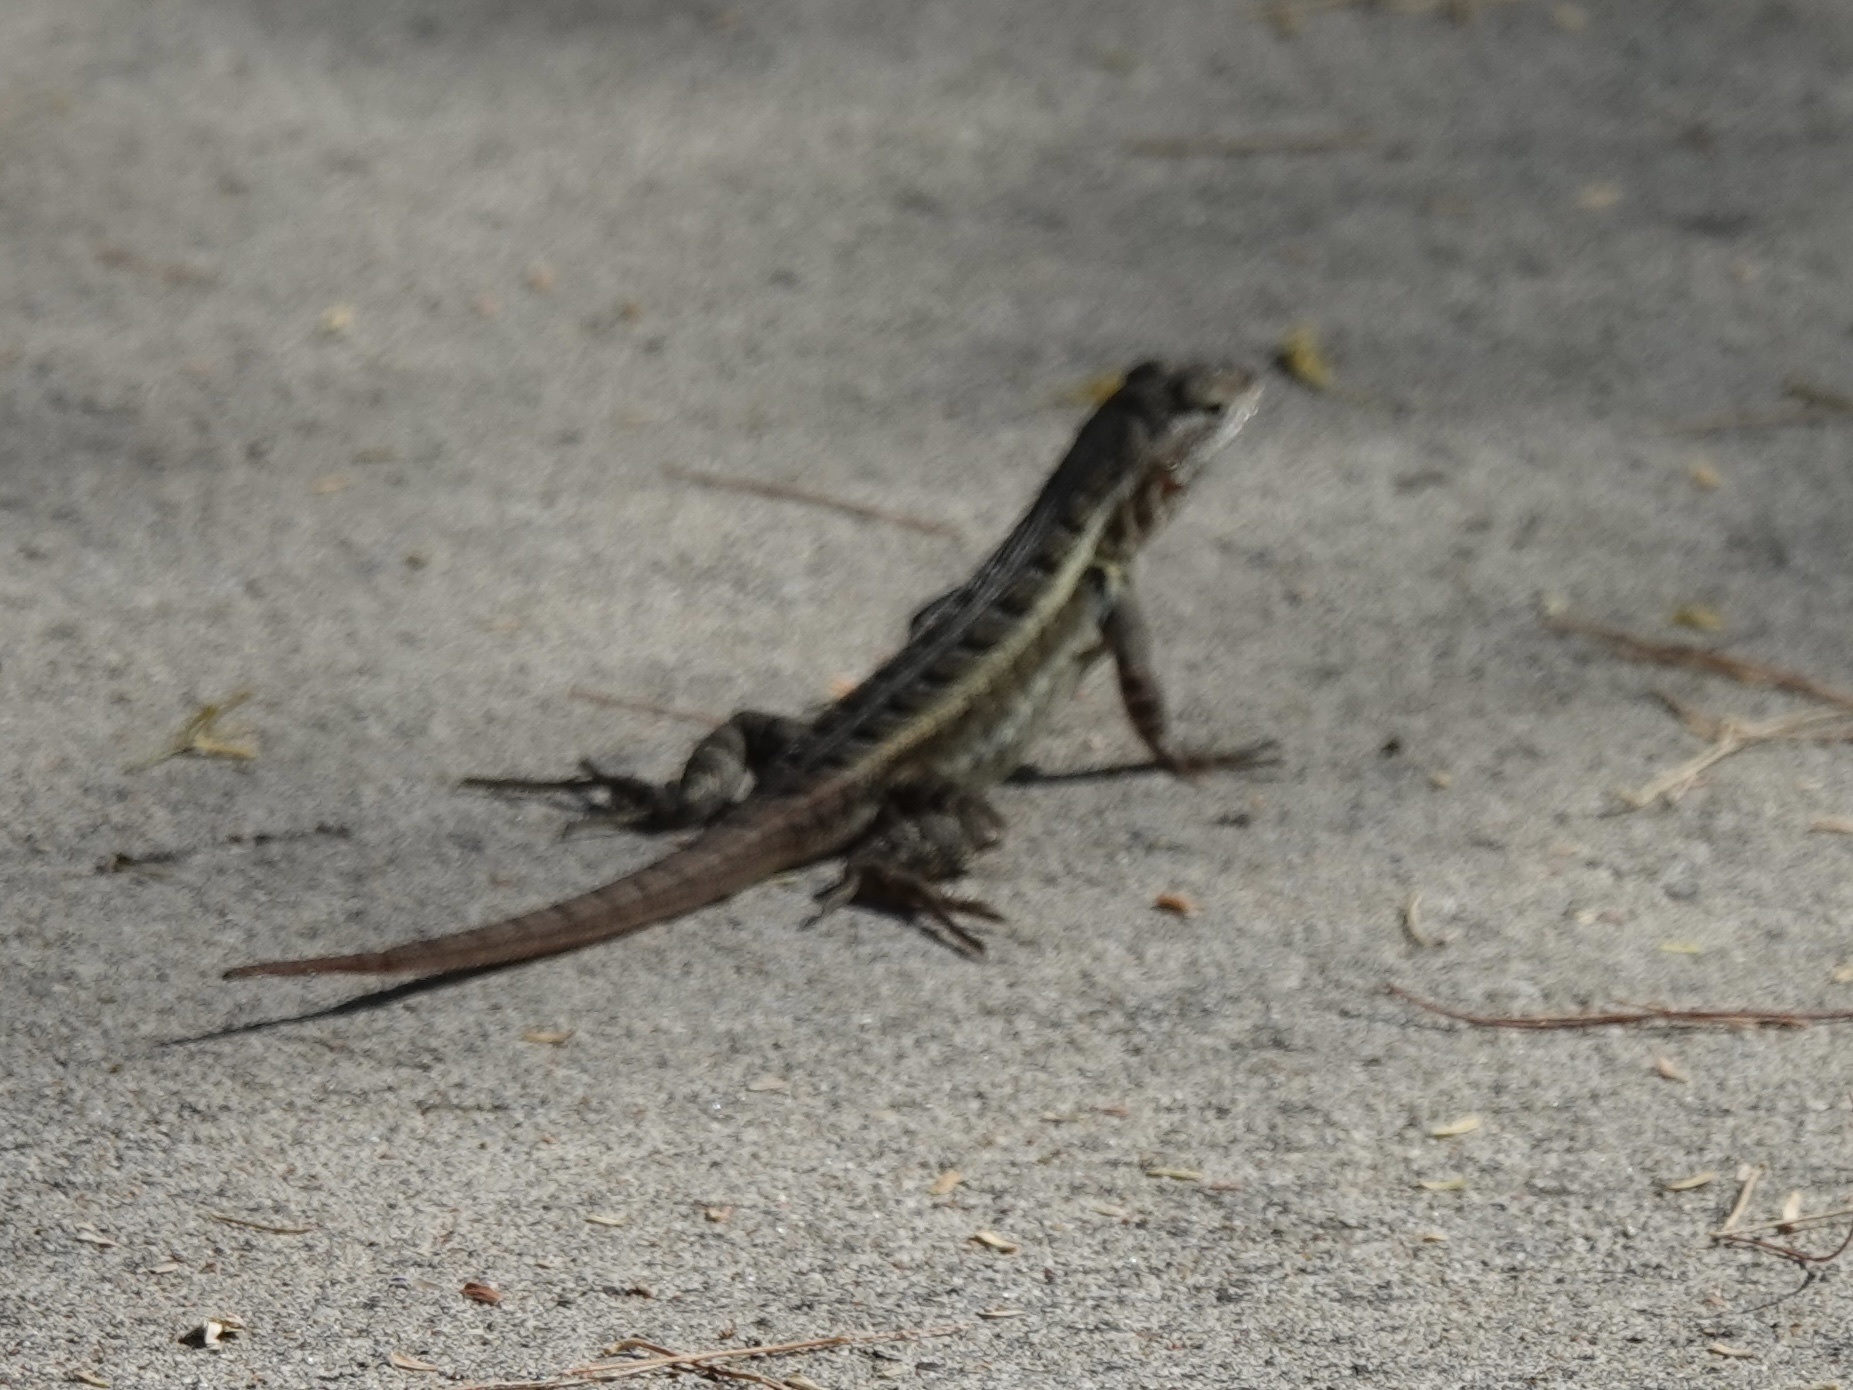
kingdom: Animalia
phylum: Chordata
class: Squamata
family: Phrynosomatidae
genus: Sceloporus
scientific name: Sceloporus variabilis
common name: Rosebelly lizard
